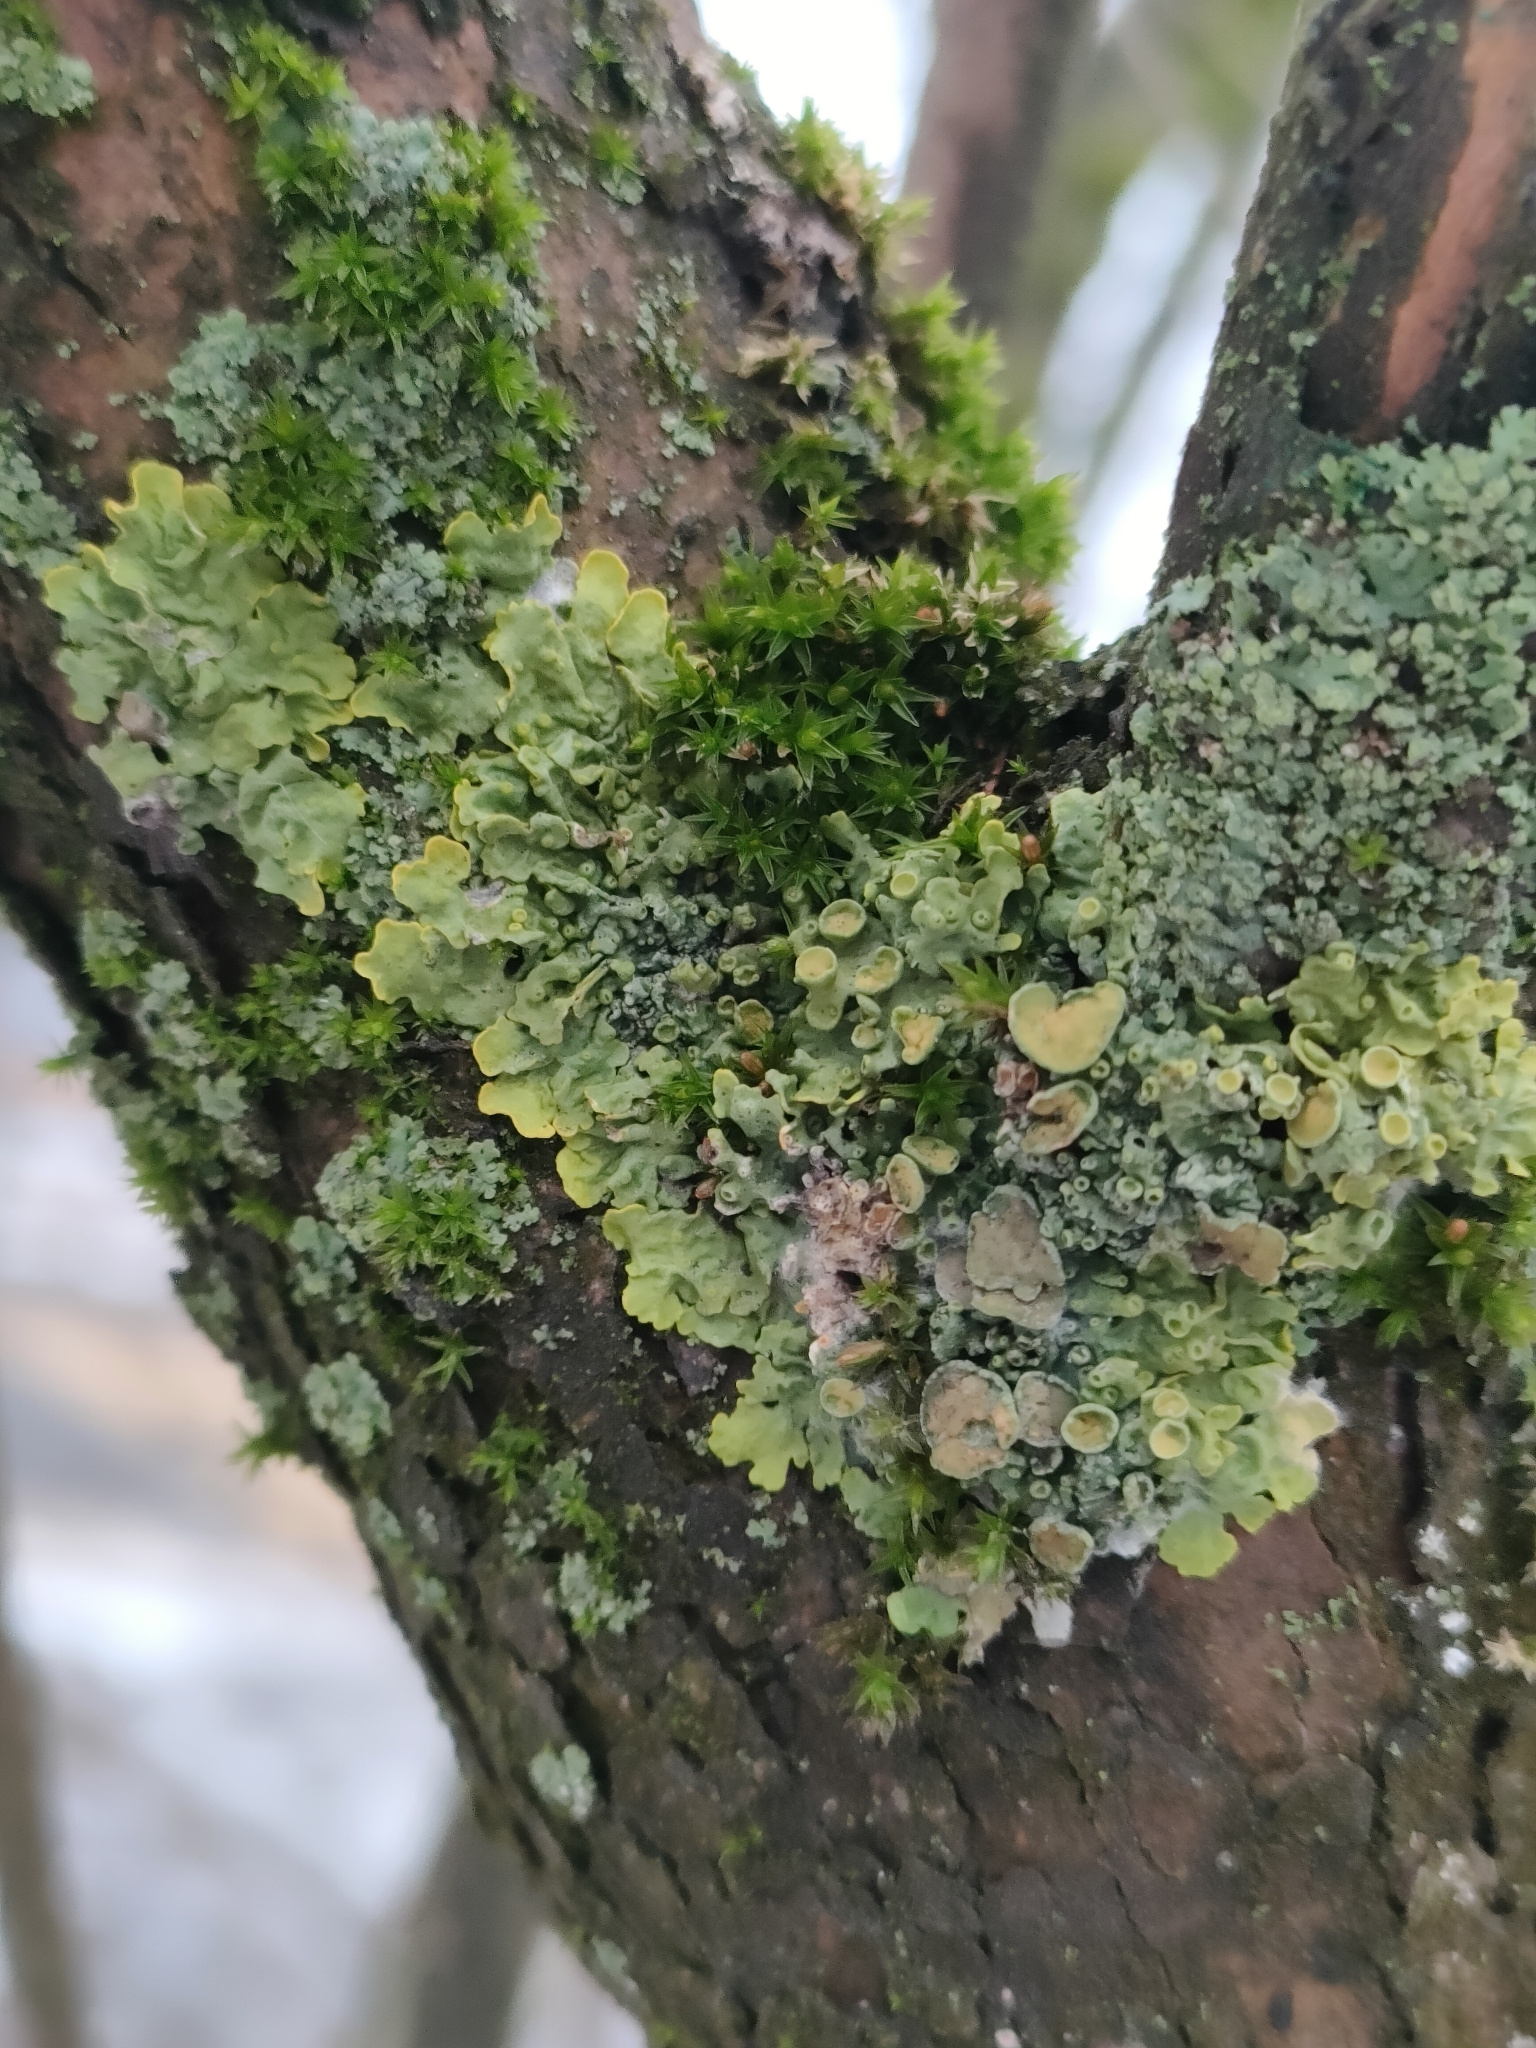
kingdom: Fungi
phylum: Ascomycota
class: Lecanoromycetes
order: Teloschistales
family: Teloschistaceae
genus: Xanthoria
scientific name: Xanthoria parietina
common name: Common orange lichen
